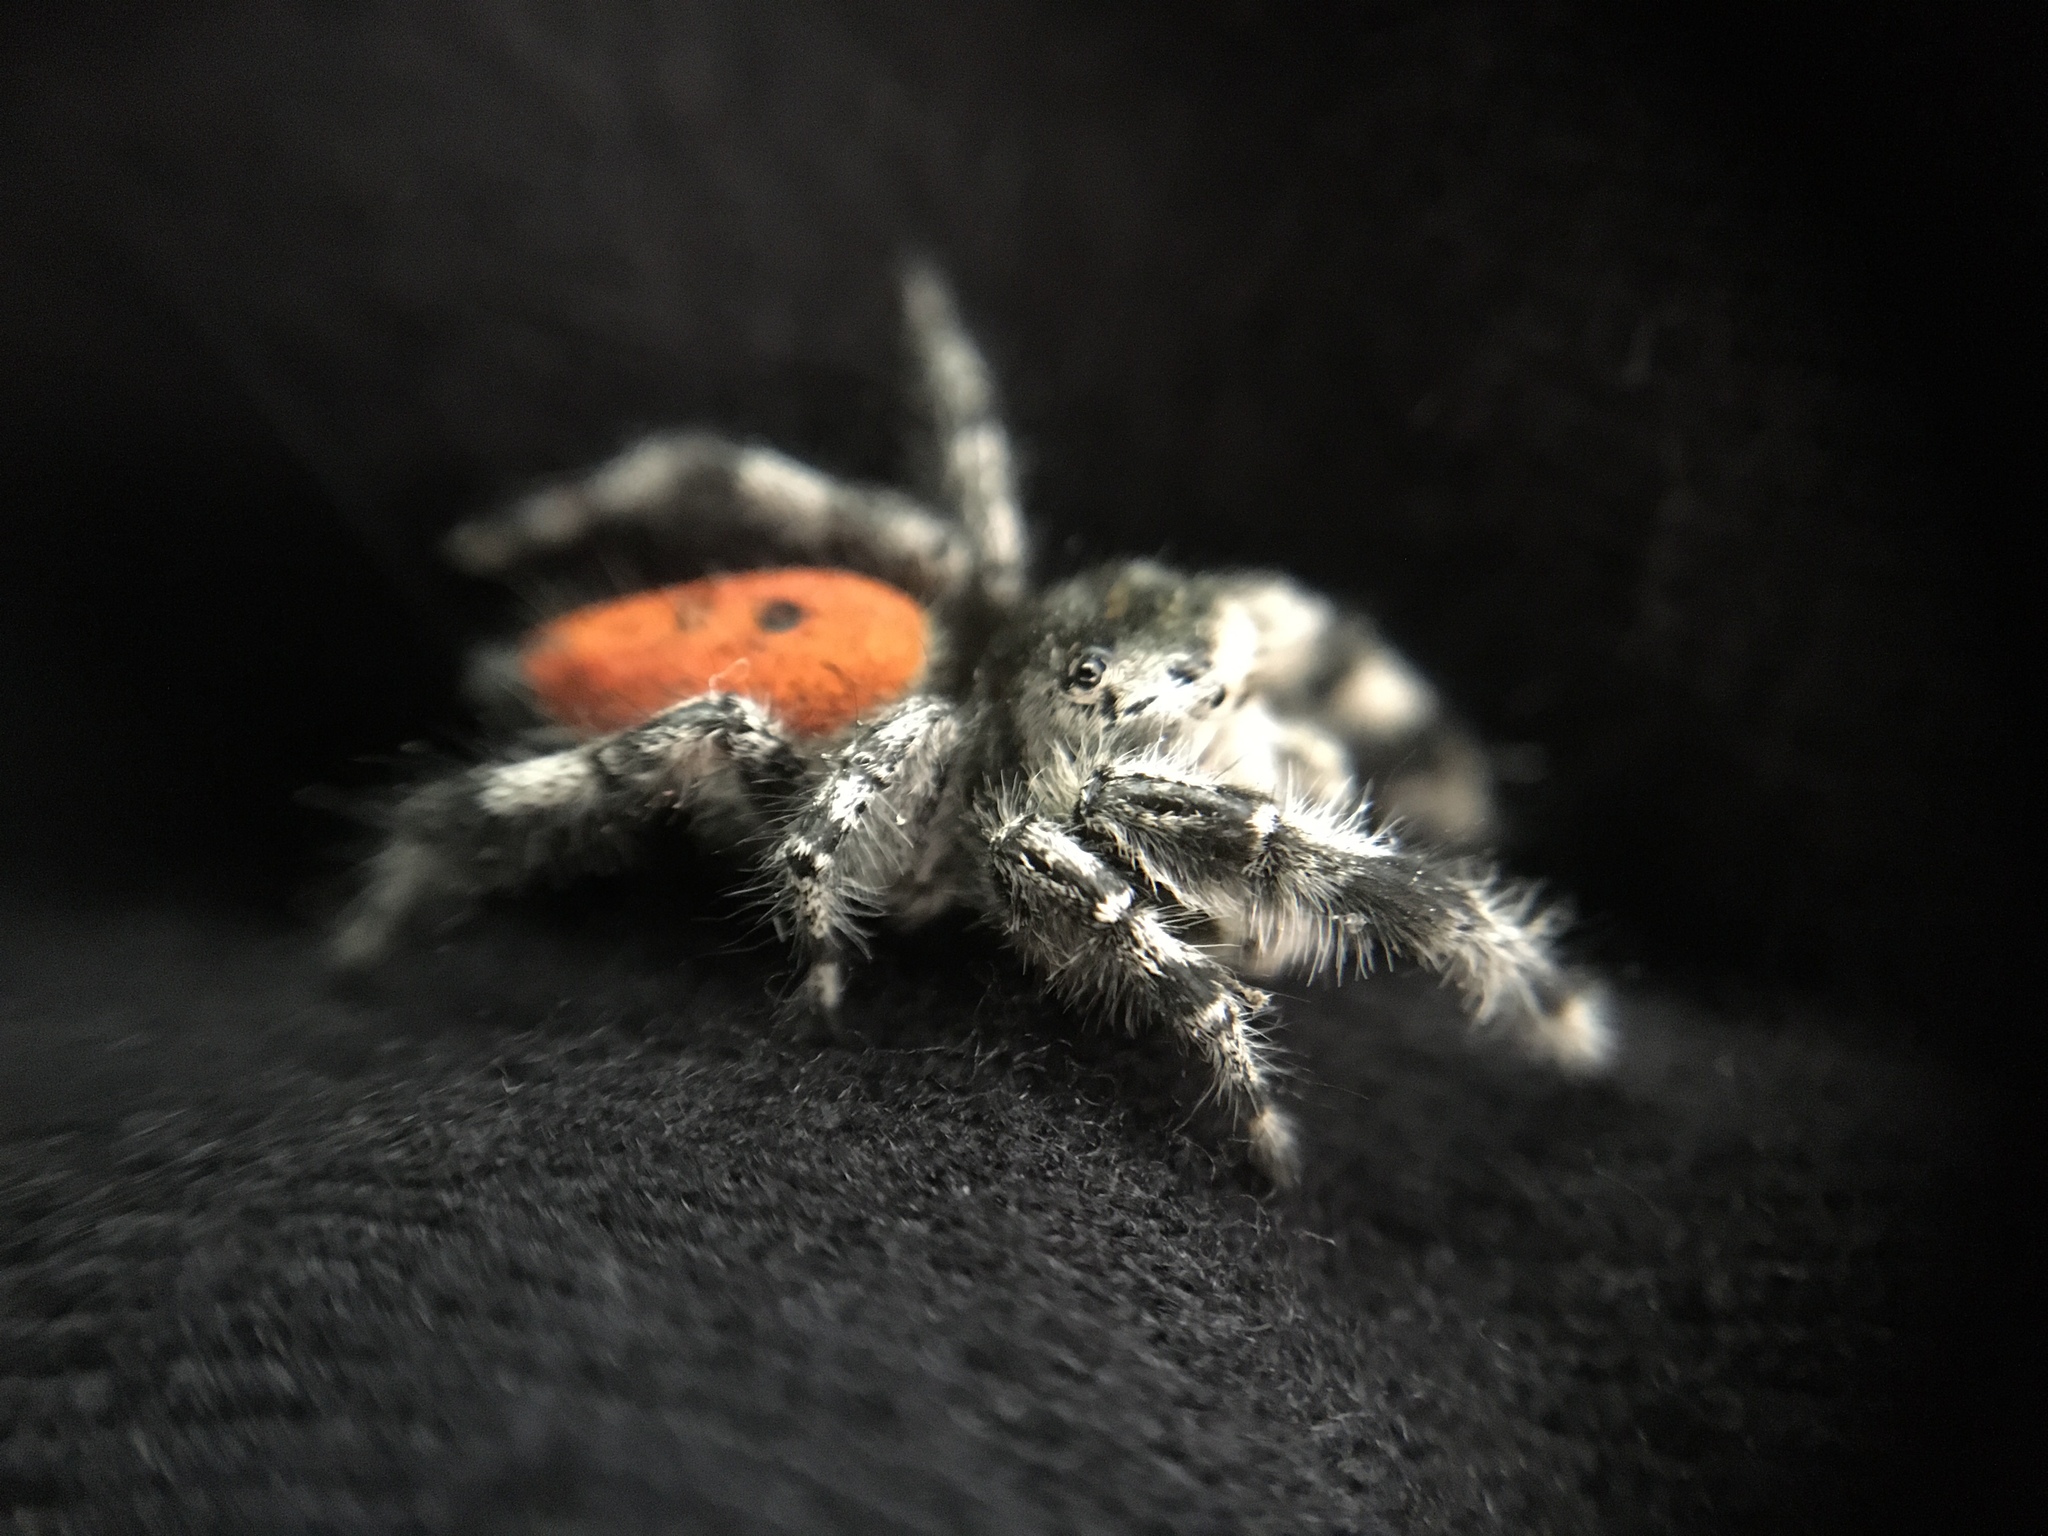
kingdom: Animalia
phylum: Arthropoda
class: Arachnida
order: Araneae
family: Salticidae
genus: Phidippus
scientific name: Phidippus adumbratus
